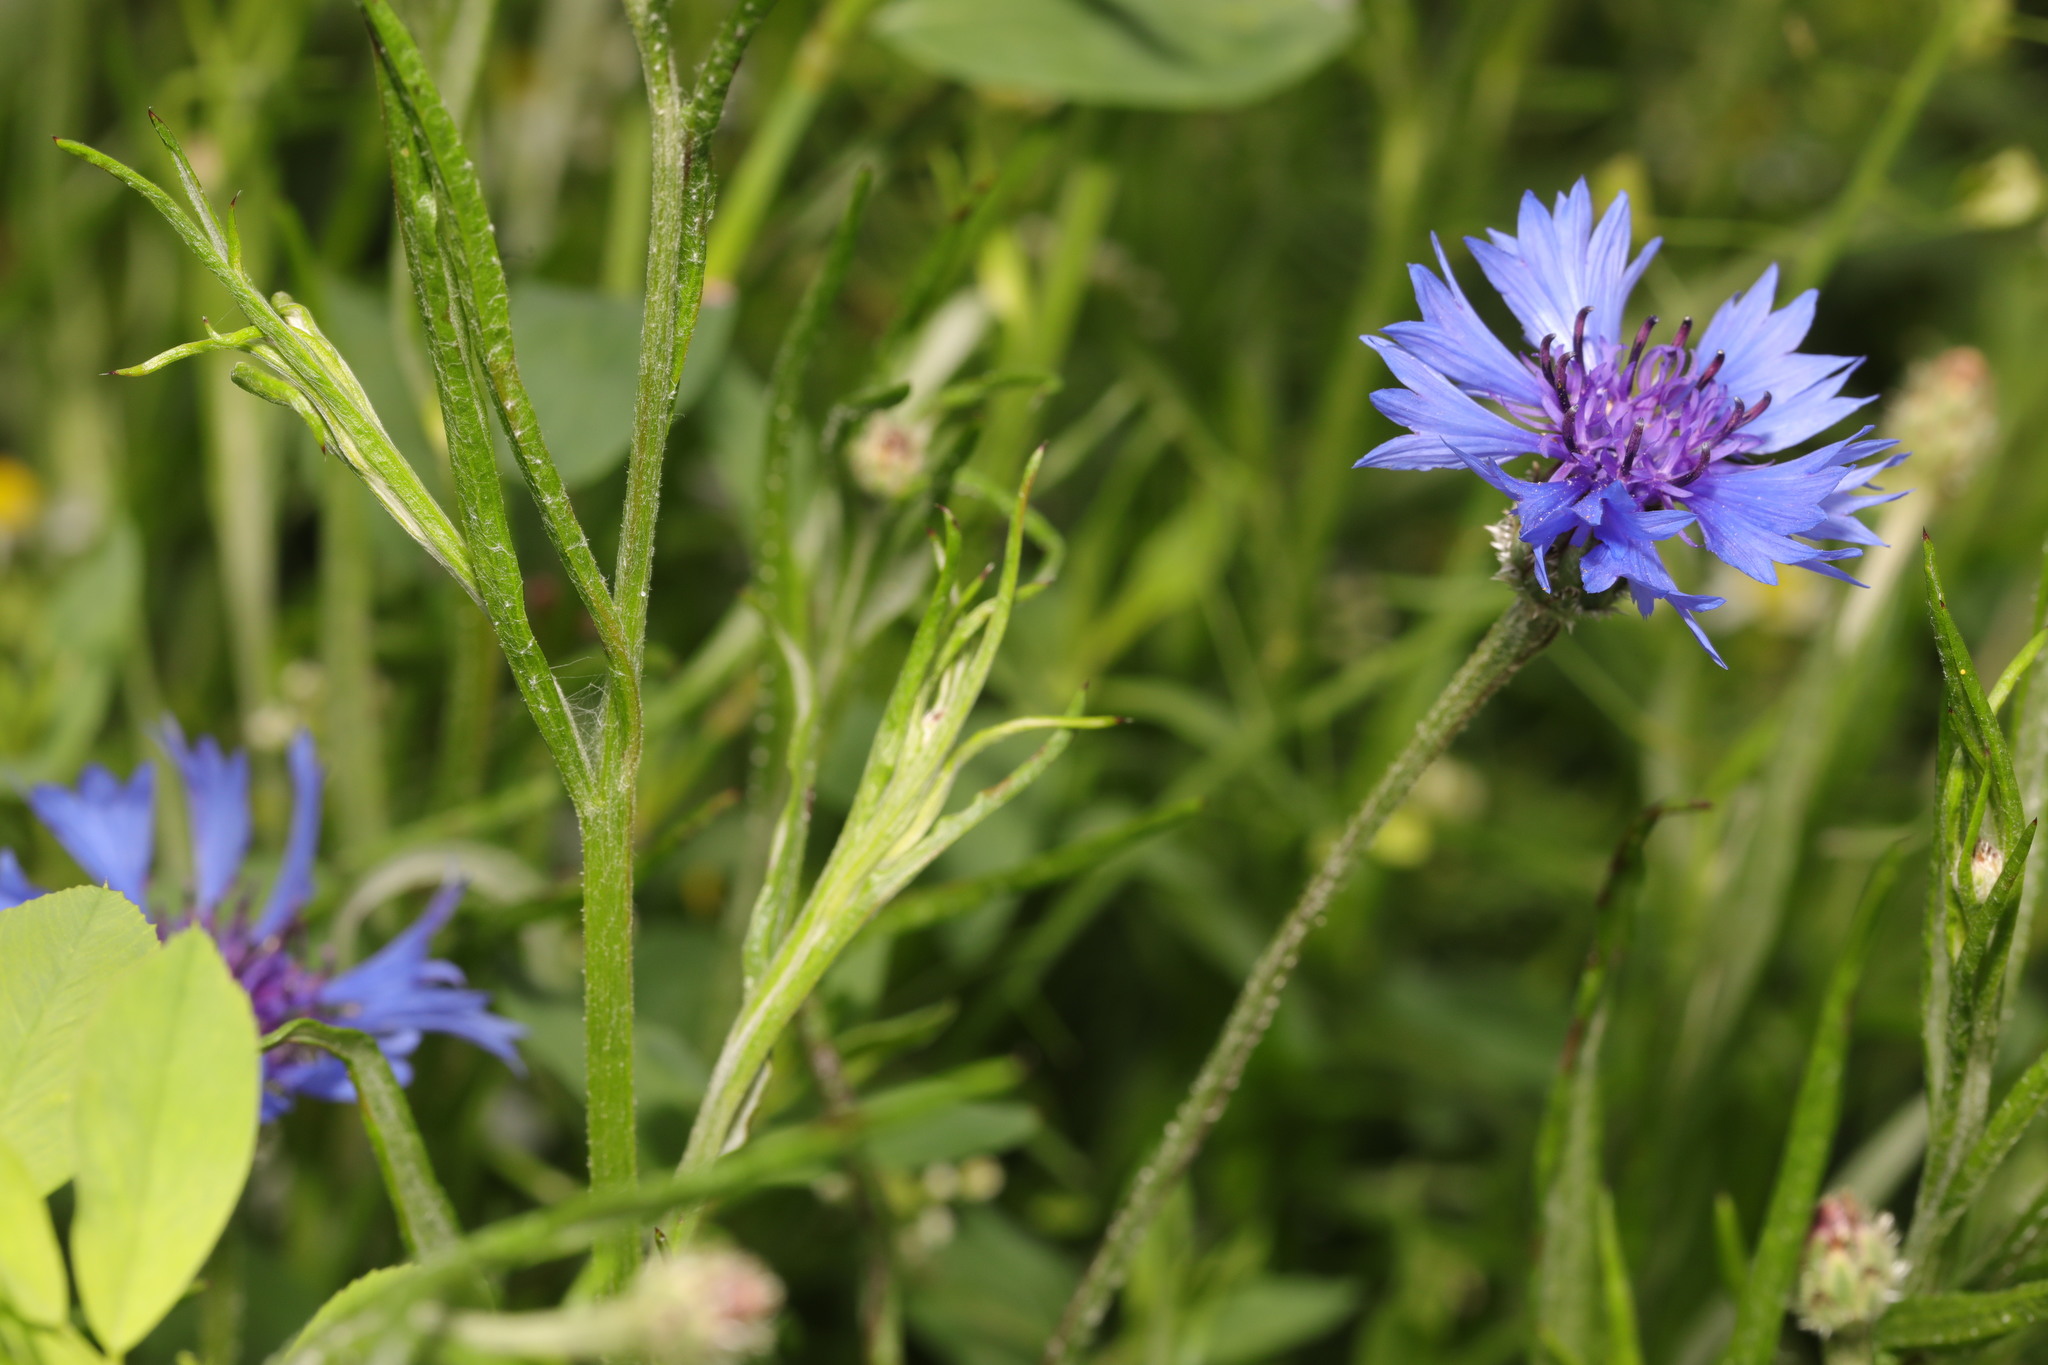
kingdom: Plantae
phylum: Tracheophyta
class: Magnoliopsida
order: Asterales
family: Asteraceae
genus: Centaurea
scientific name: Centaurea cyanus
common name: Cornflower
